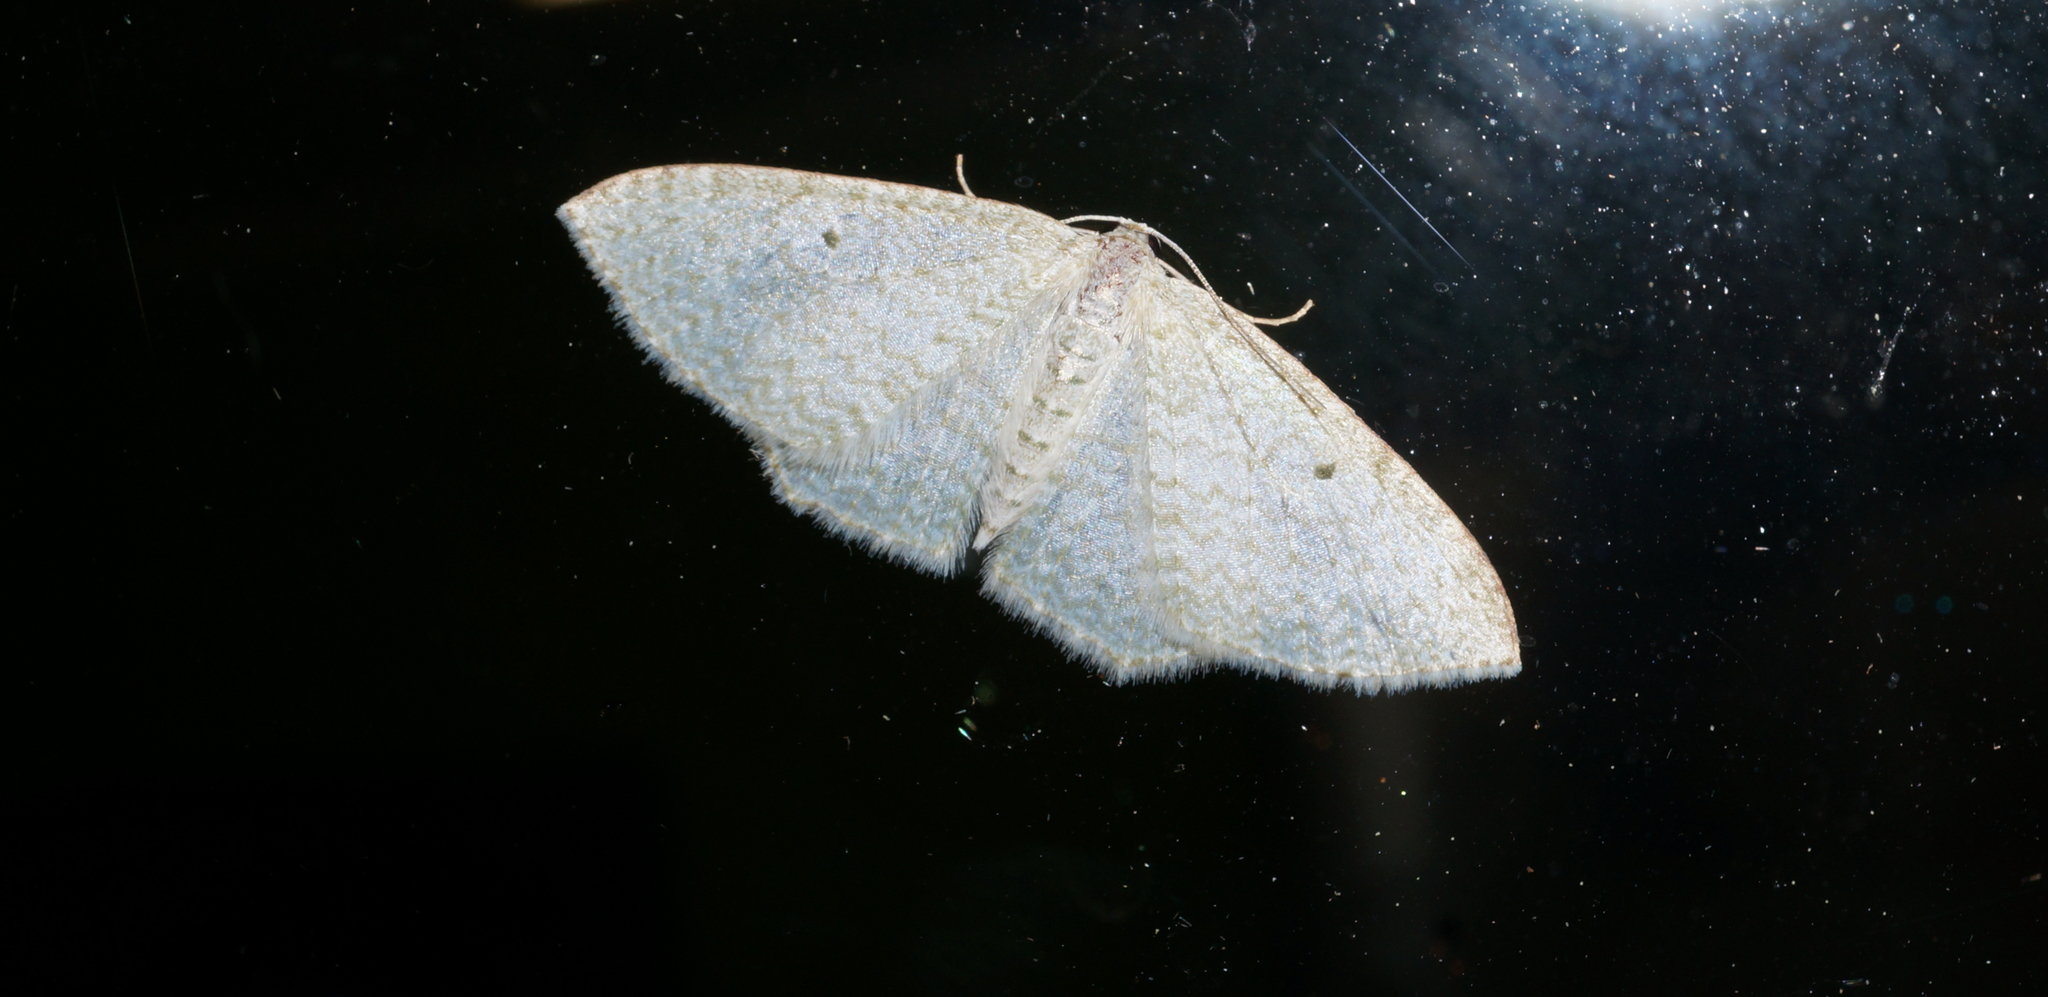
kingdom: Animalia
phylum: Arthropoda
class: Insecta
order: Lepidoptera
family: Geometridae
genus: Poecilasthena
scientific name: Poecilasthena pulchraria
